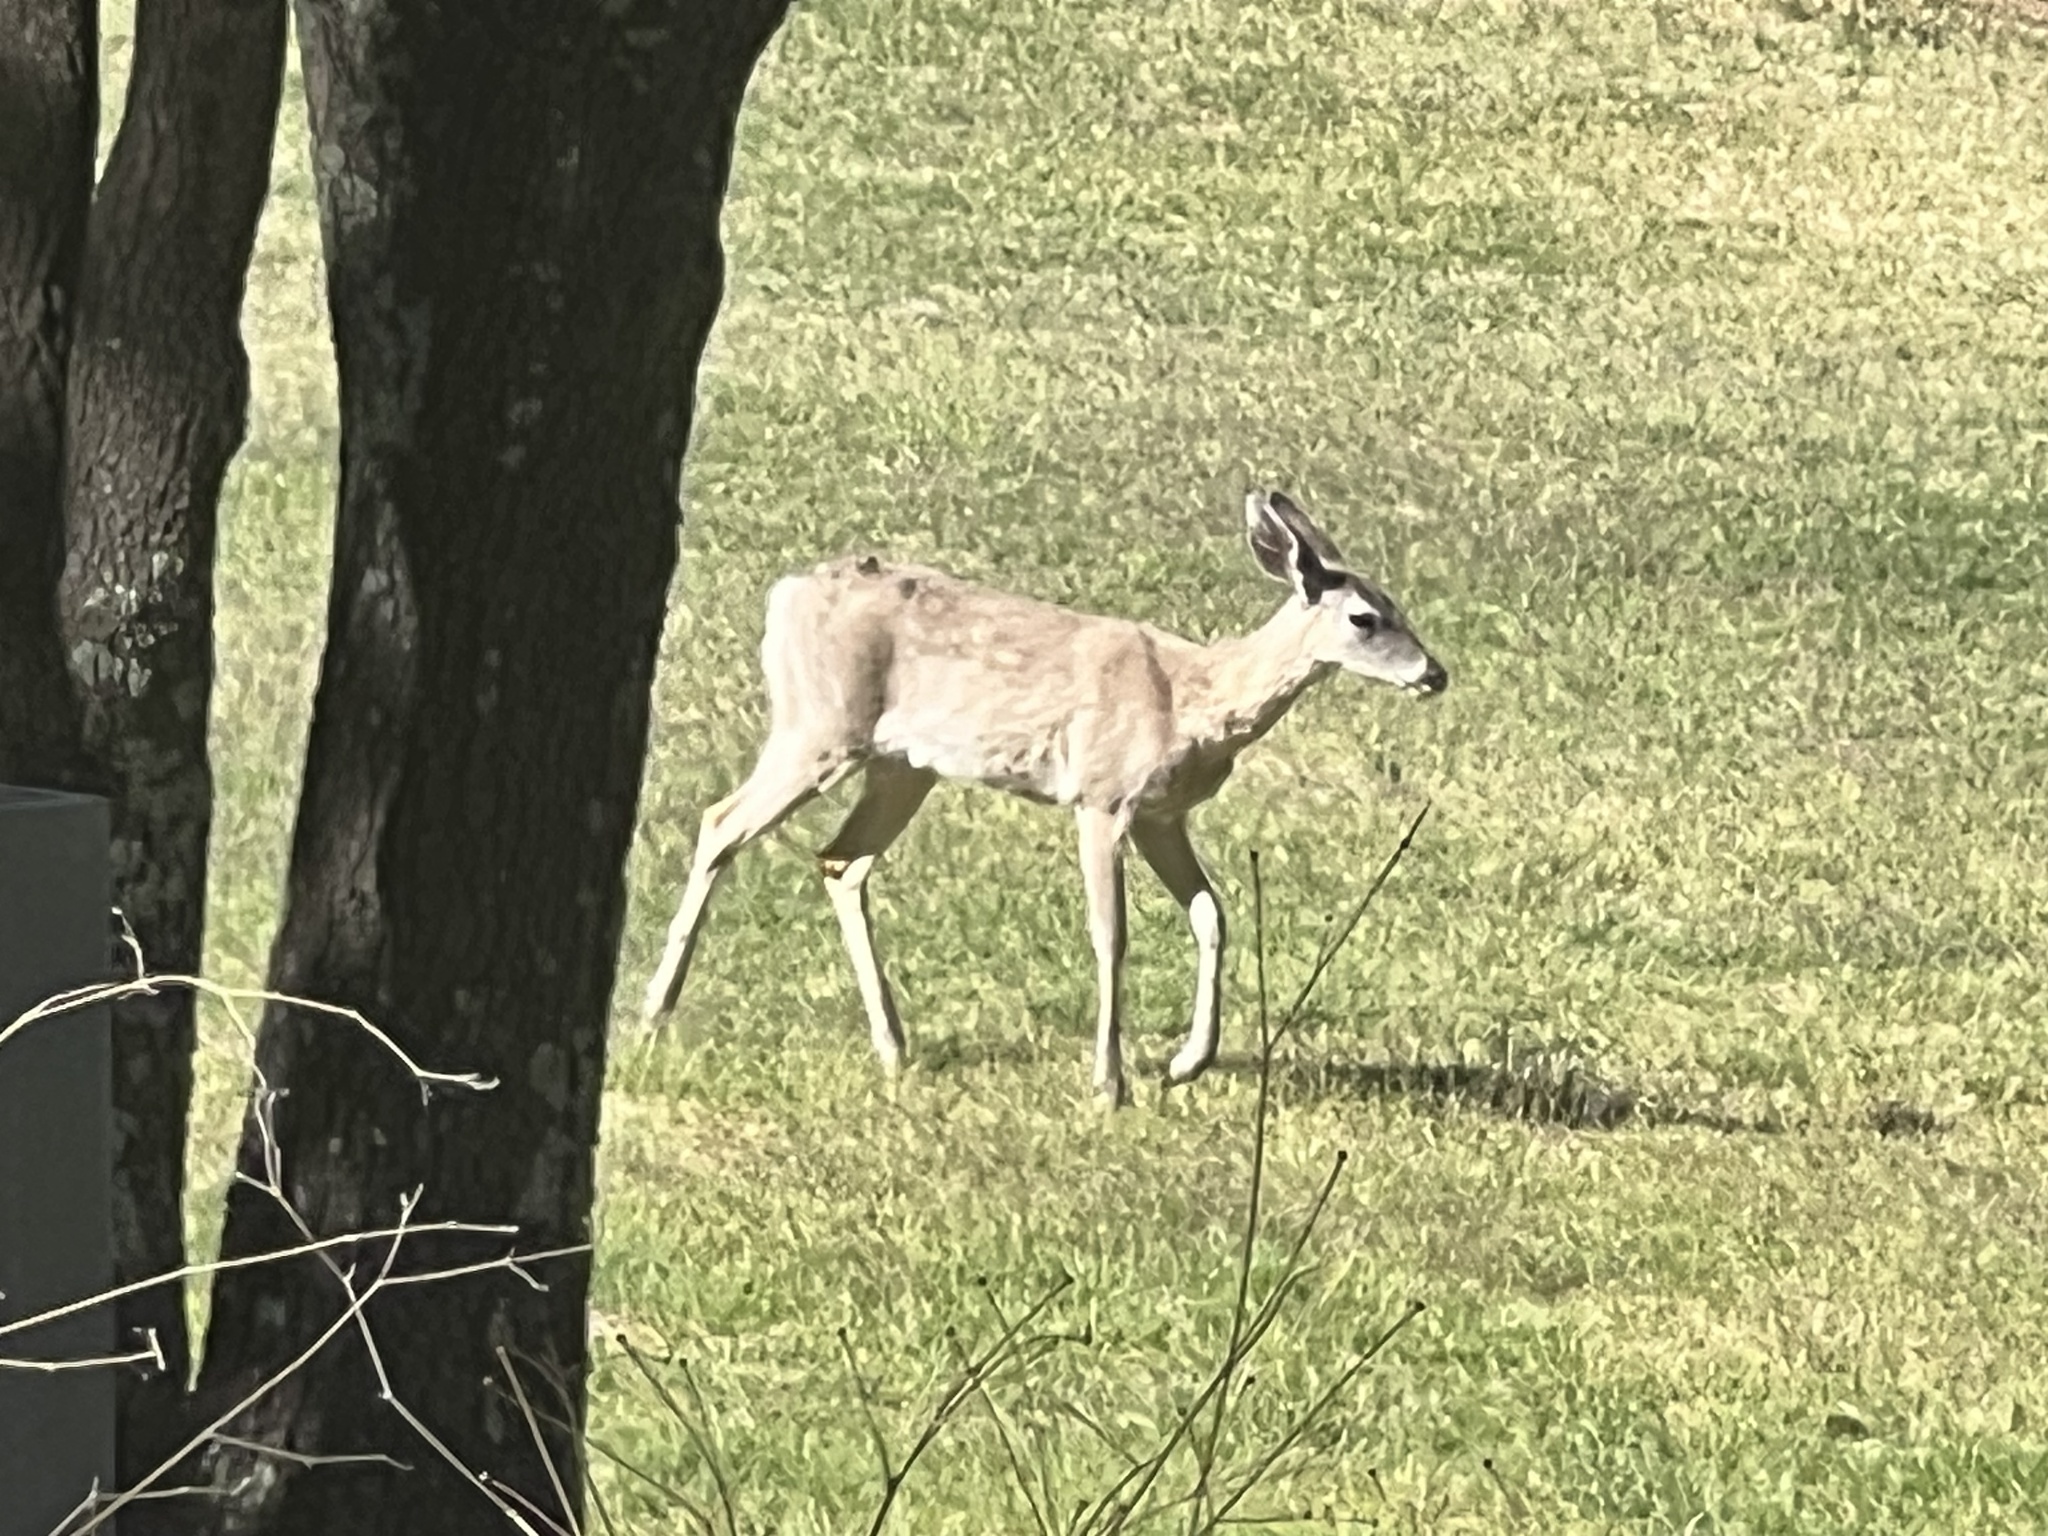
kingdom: Animalia
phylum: Chordata
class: Mammalia
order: Artiodactyla
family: Cervidae
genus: Odocoileus
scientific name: Odocoileus virginianus
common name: White-tailed deer
